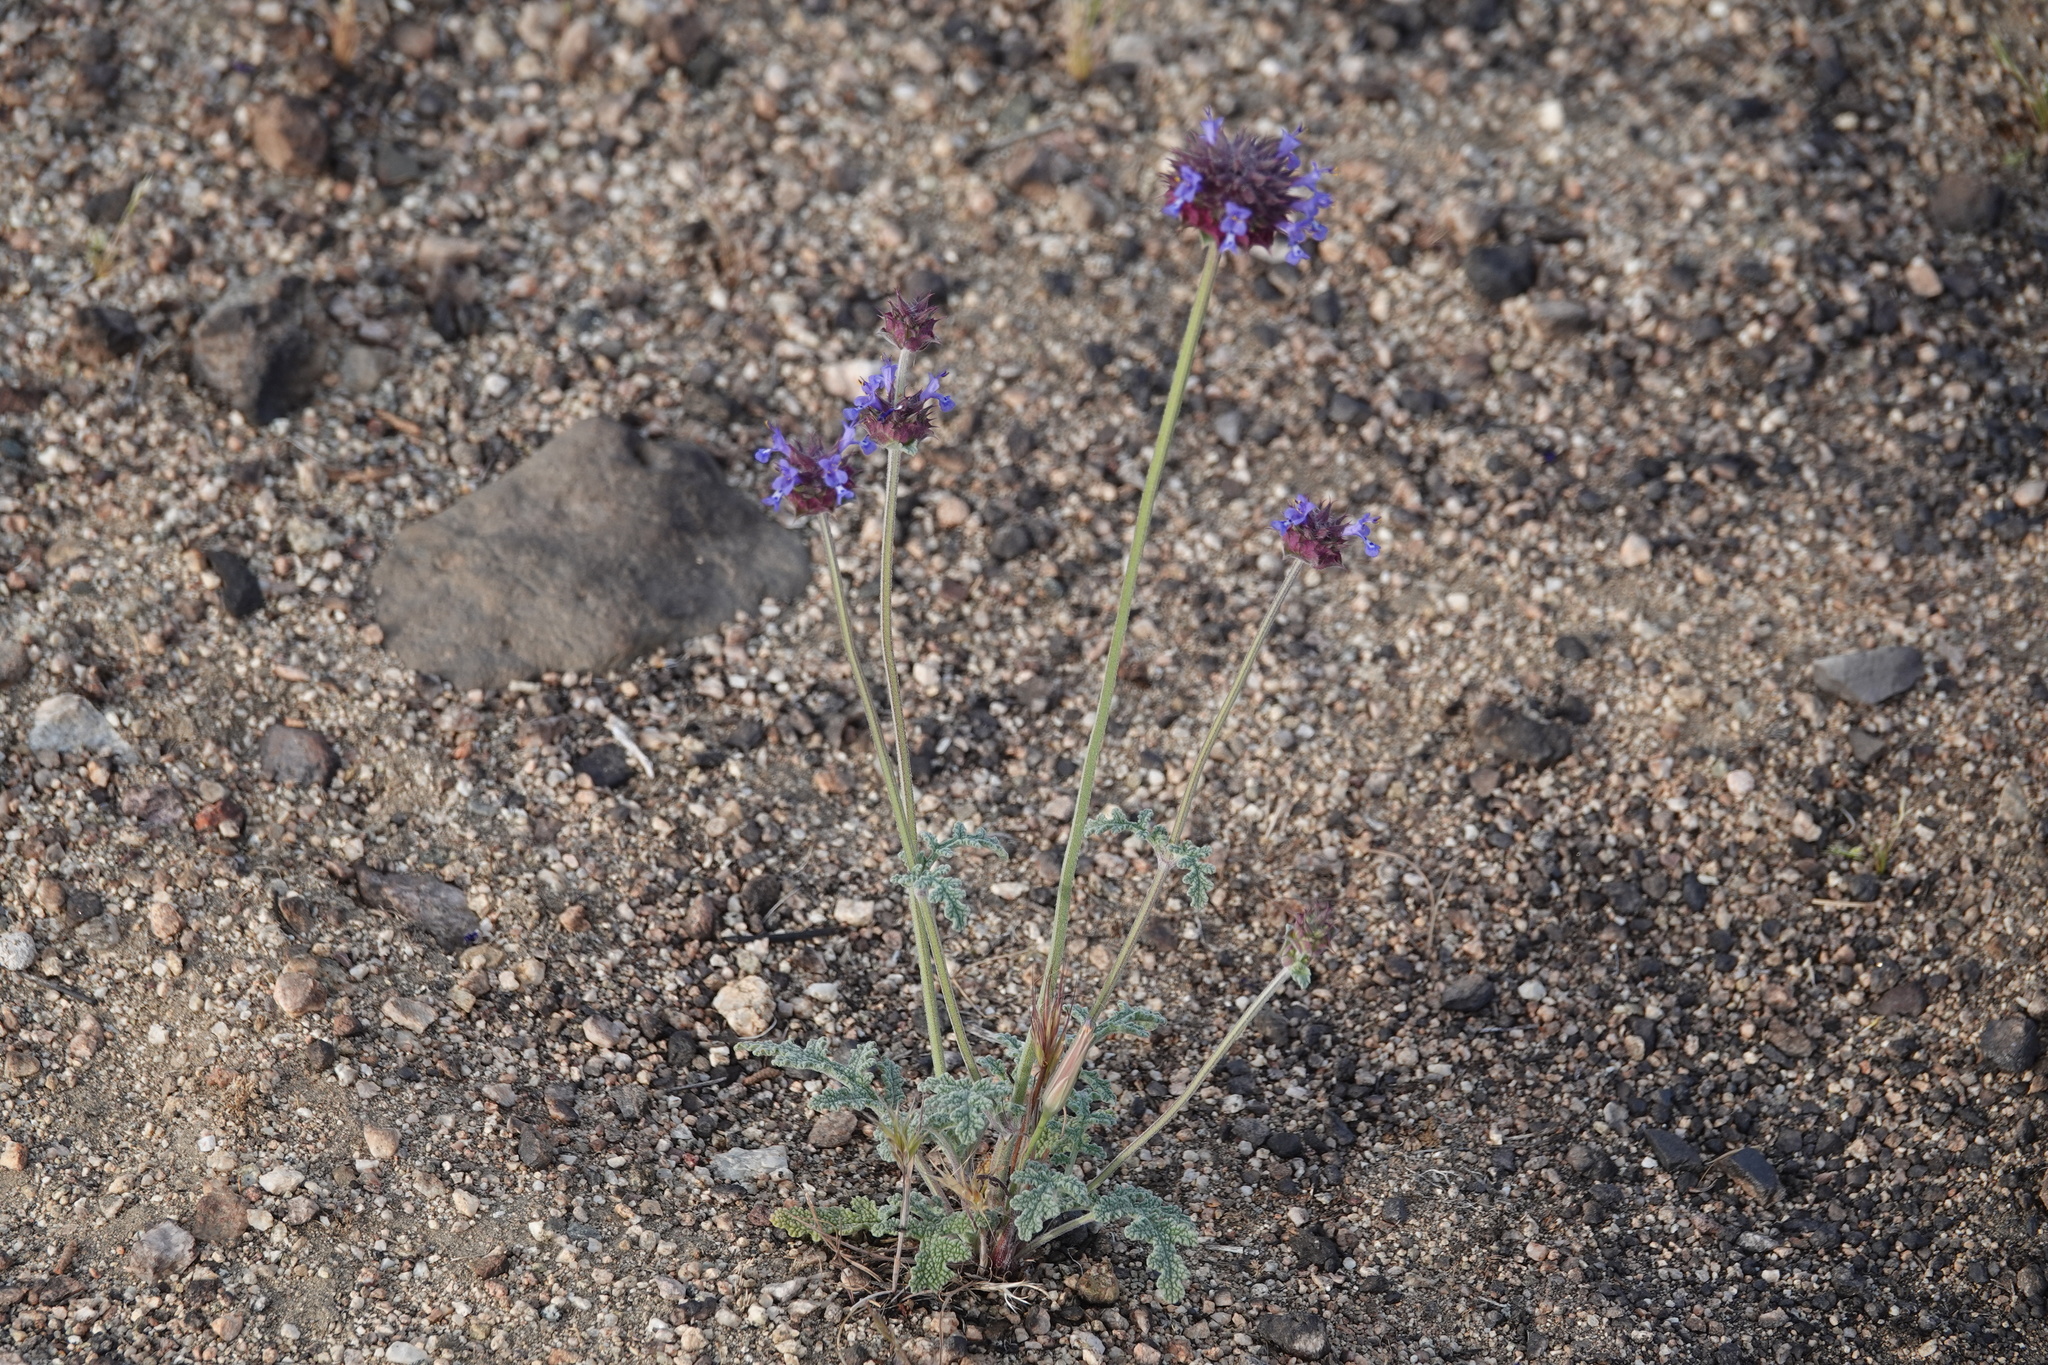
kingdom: Plantae
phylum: Tracheophyta
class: Magnoliopsida
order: Lamiales
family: Lamiaceae
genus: Salvia
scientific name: Salvia columbariae
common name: Chia
